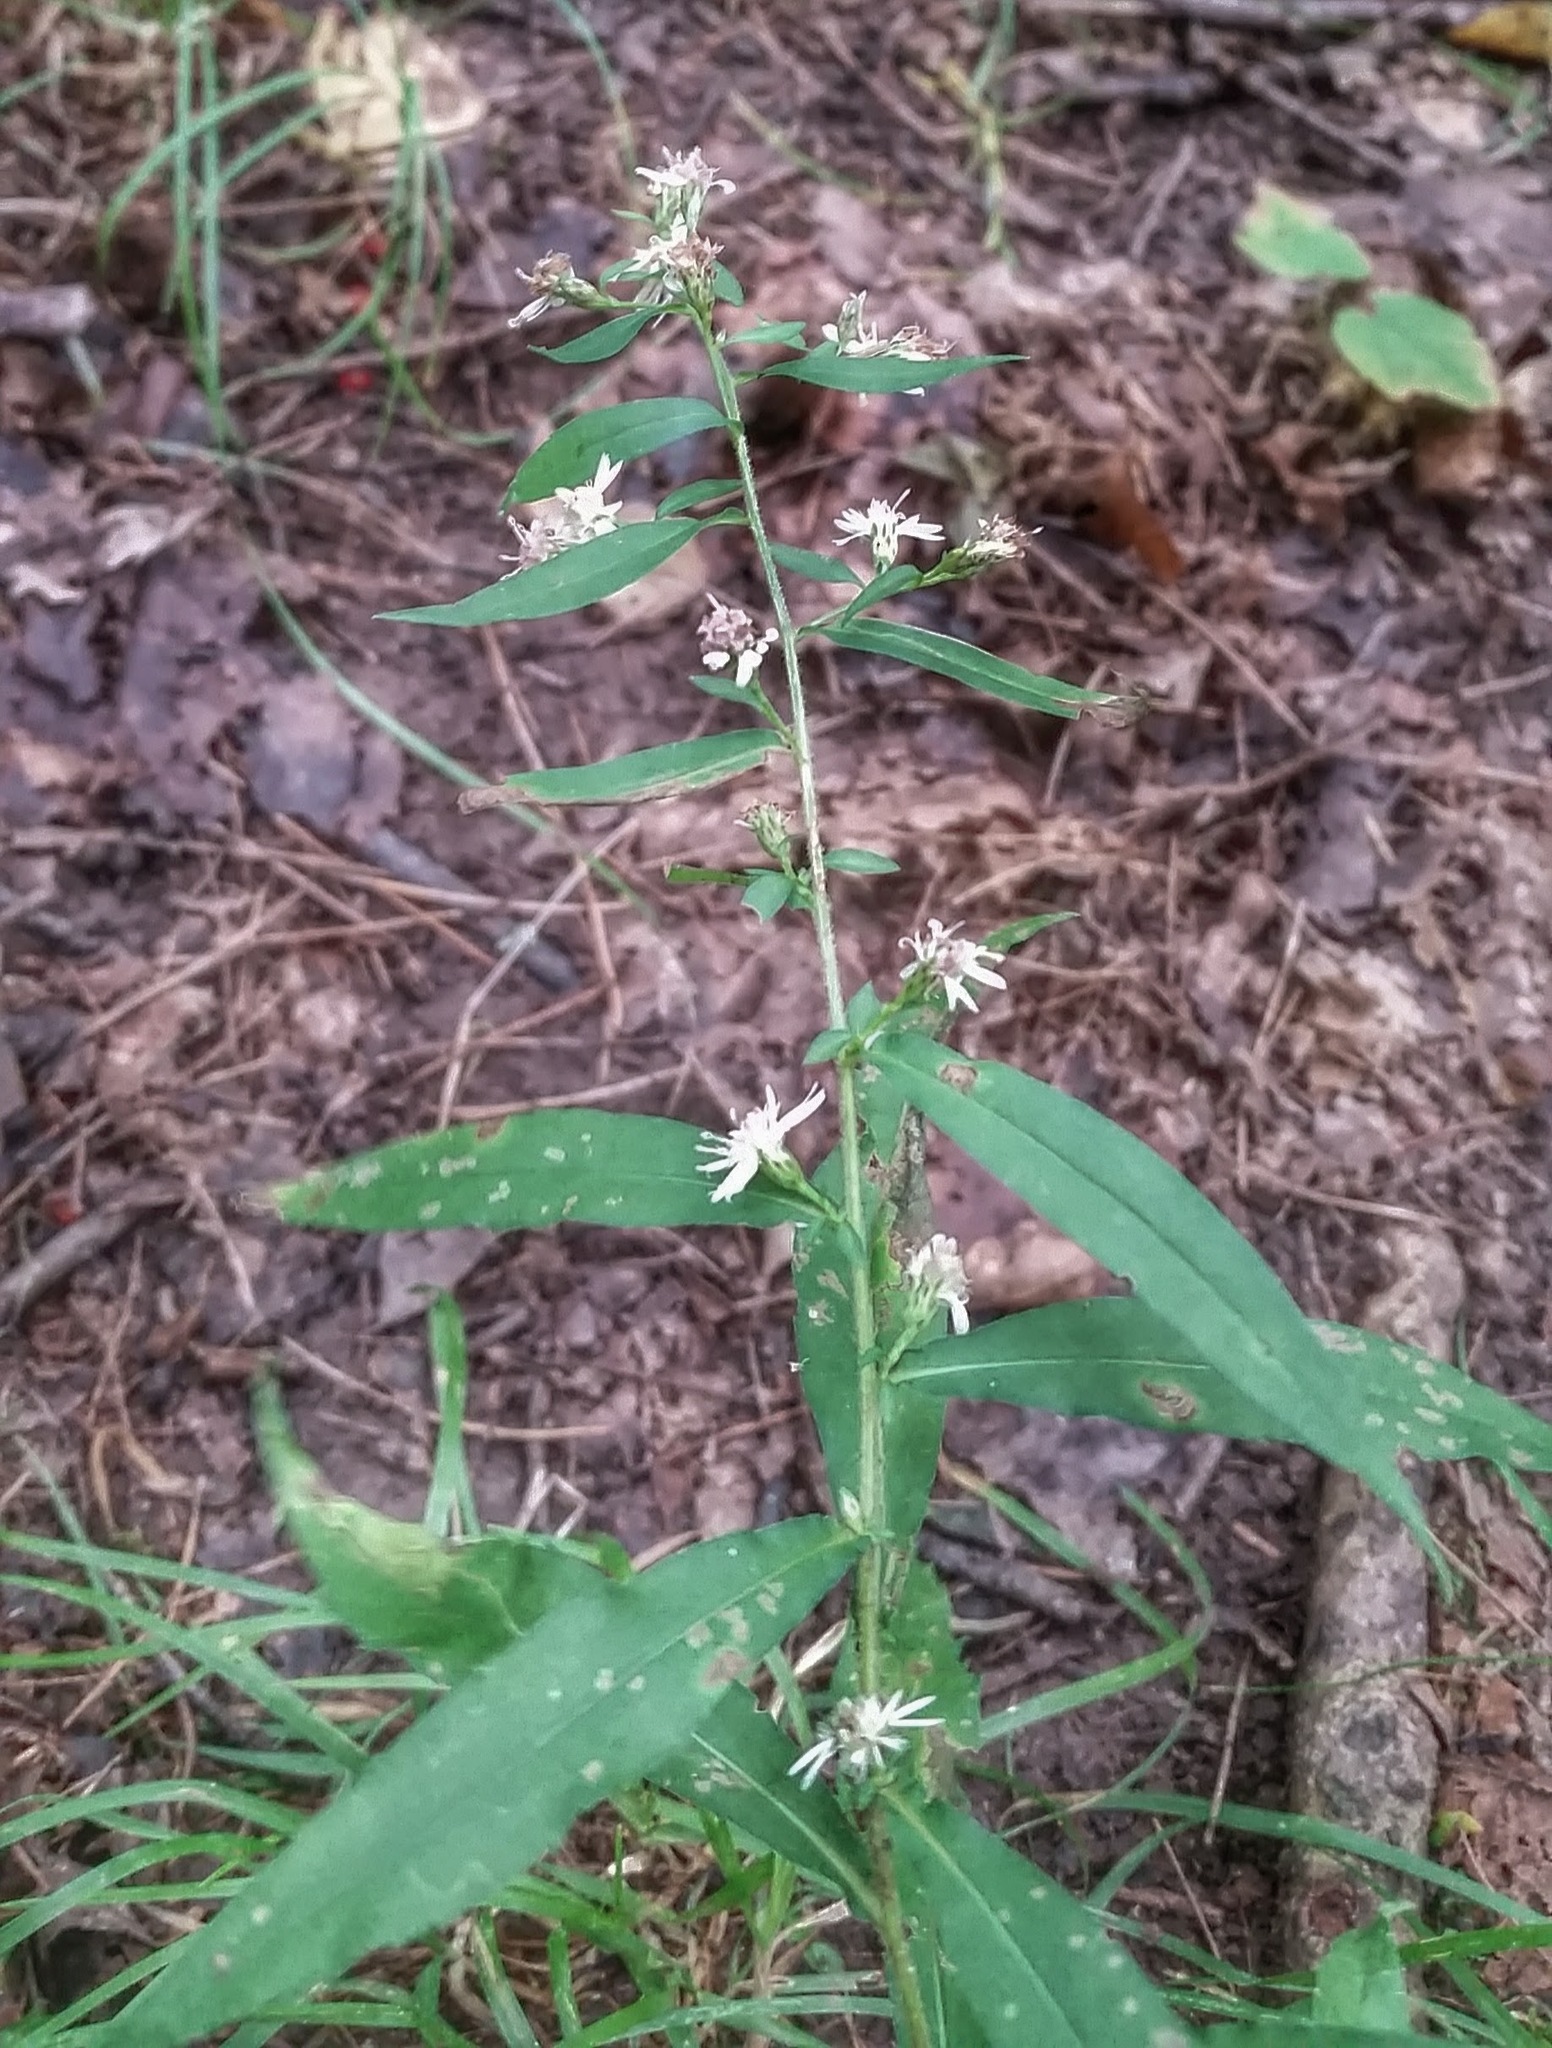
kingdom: Plantae
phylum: Tracheophyta
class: Magnoliopsida
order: Asterales
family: Asteraceae
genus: Symphyotrichum
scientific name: Symphyotrichum lateriflorum
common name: Calico aster
